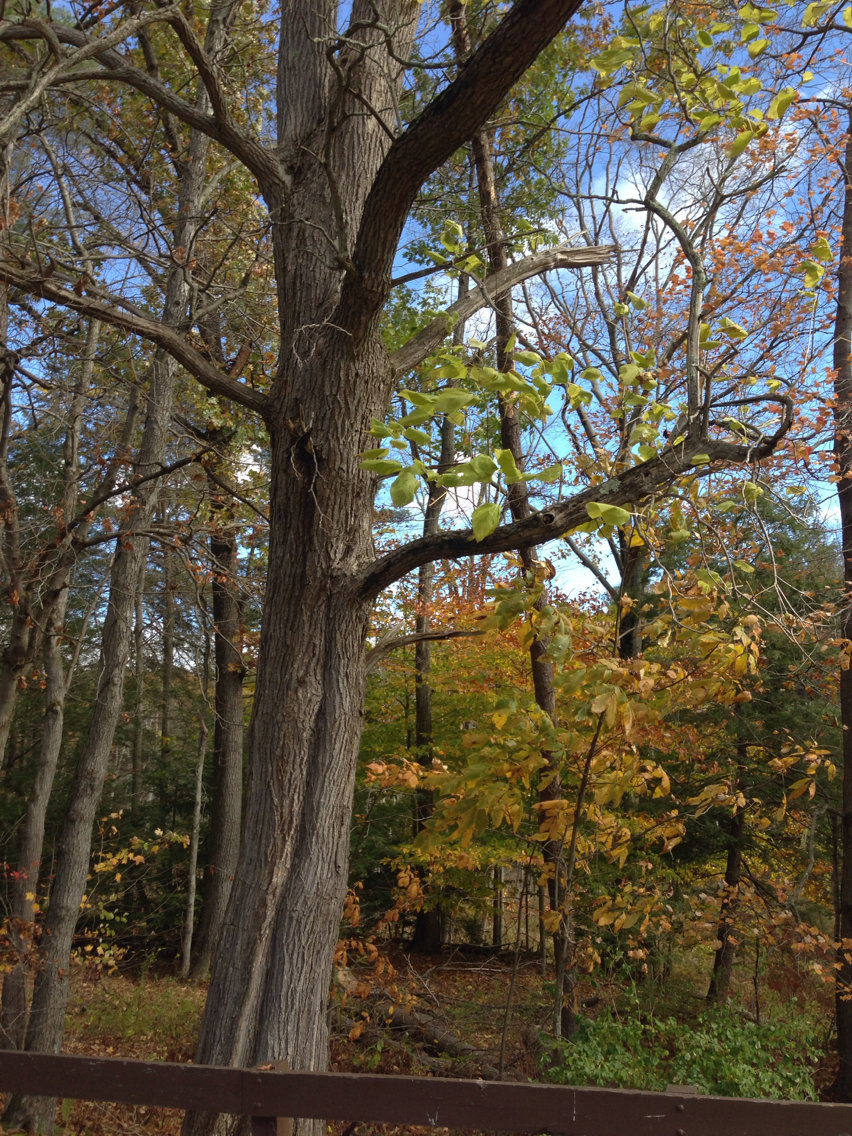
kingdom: Plantae
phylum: Tracheophyta
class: Magnoliopsida
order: Lamiales
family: Bignoniaceae
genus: Catalpa
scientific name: Catalpa speciosa
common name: Northern catalpa
